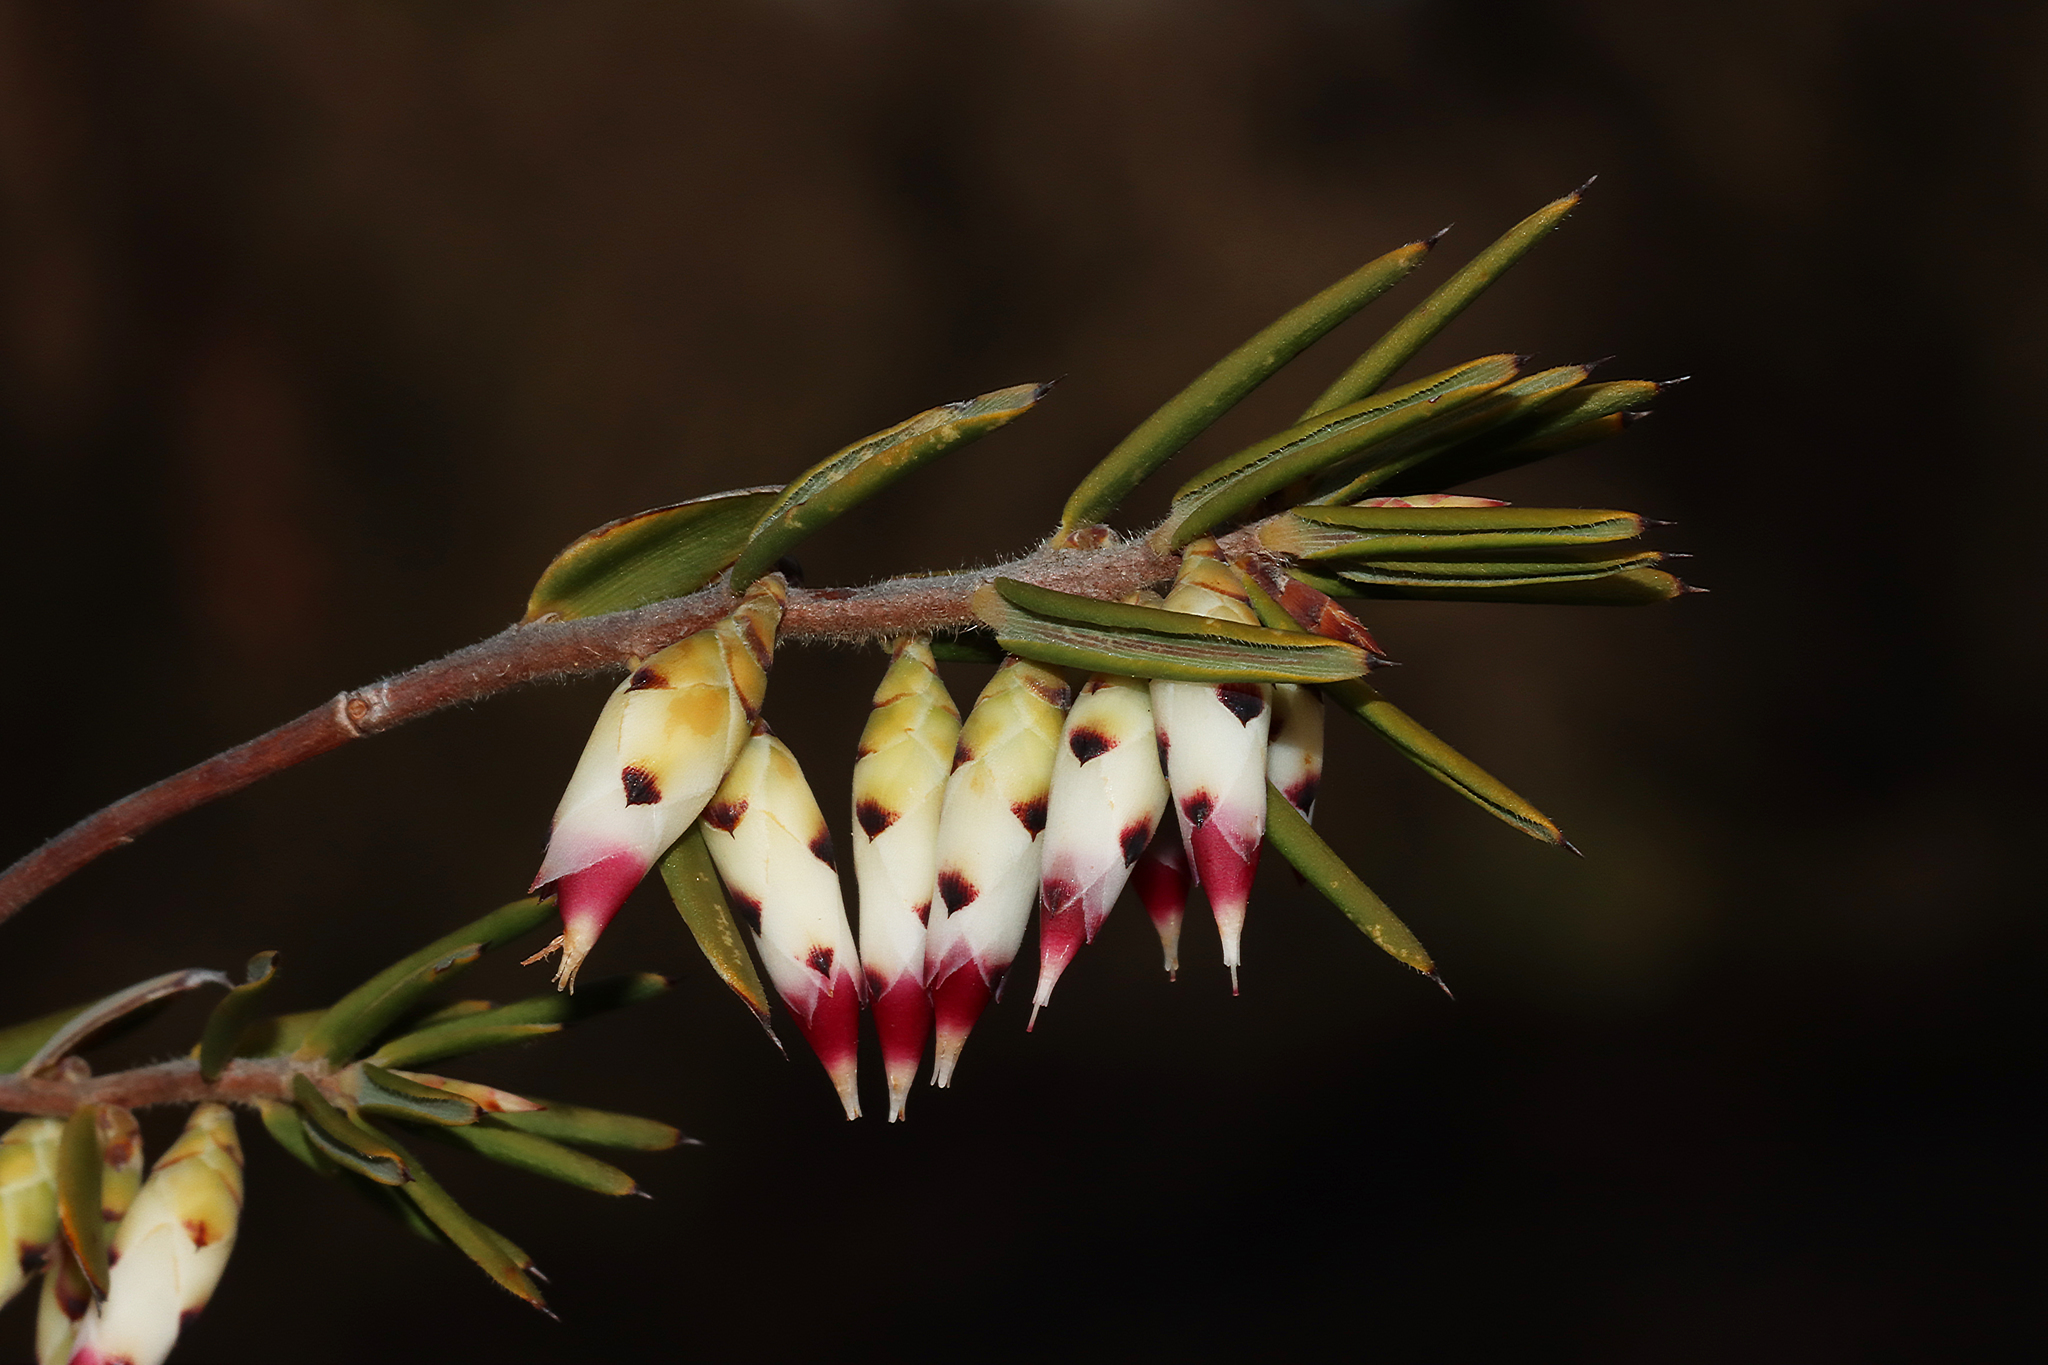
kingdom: Plantae
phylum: Tracheophyta
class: Magnoliopsida
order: Ericales
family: Ericaceae
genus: Conostephium
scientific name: Conostephium pendulum
